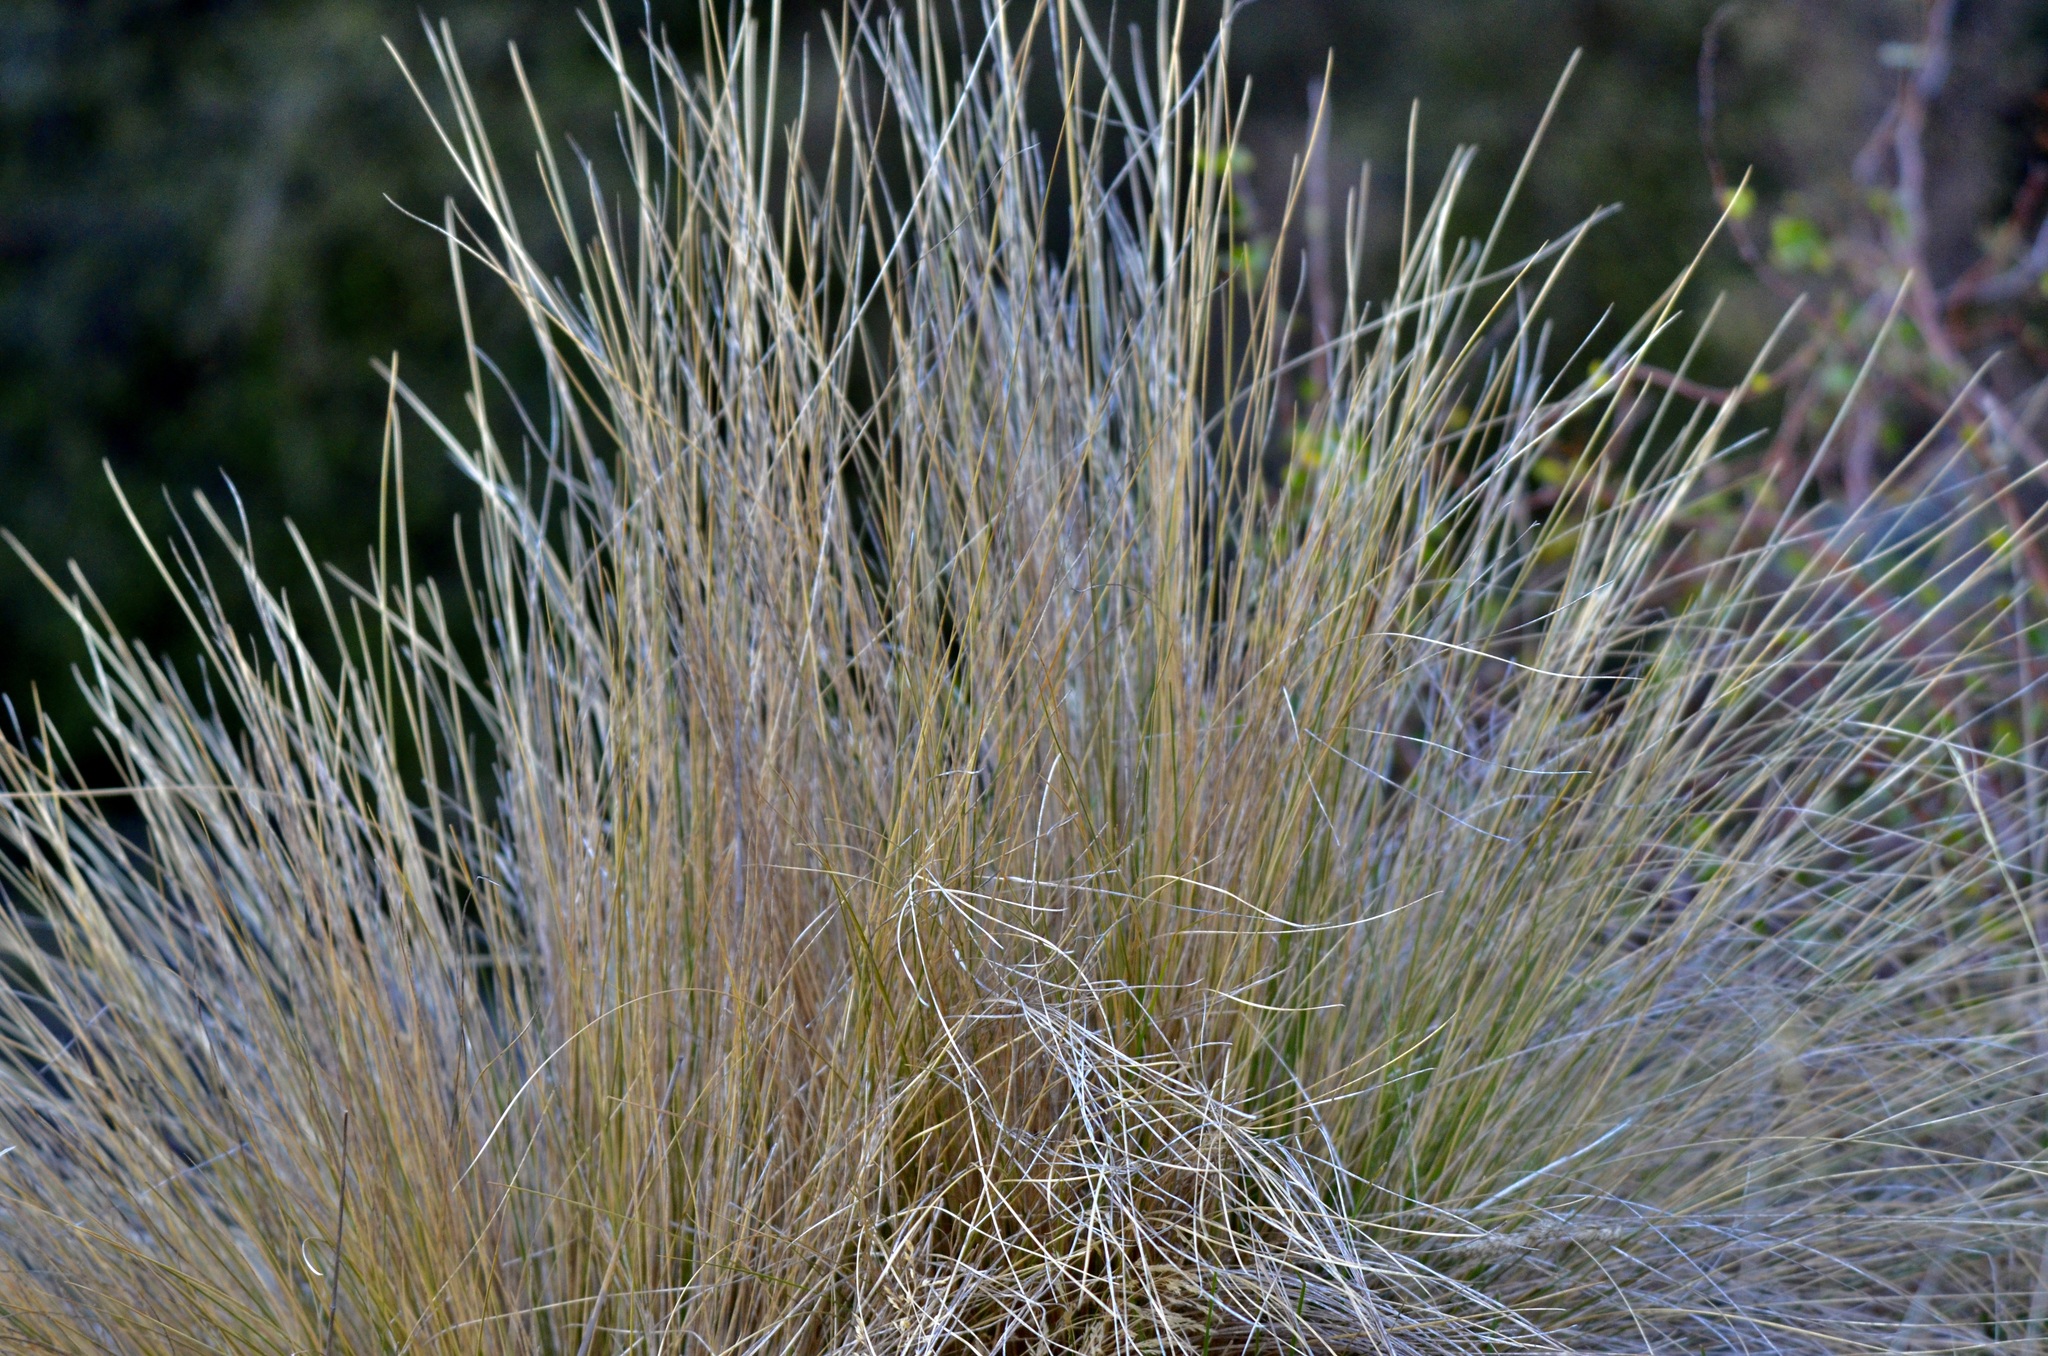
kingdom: Plantae
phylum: Tracheophyta
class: Liliopsida
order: Poales
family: Poaceae
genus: Poa
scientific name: Poa cita
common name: Silver tussock
